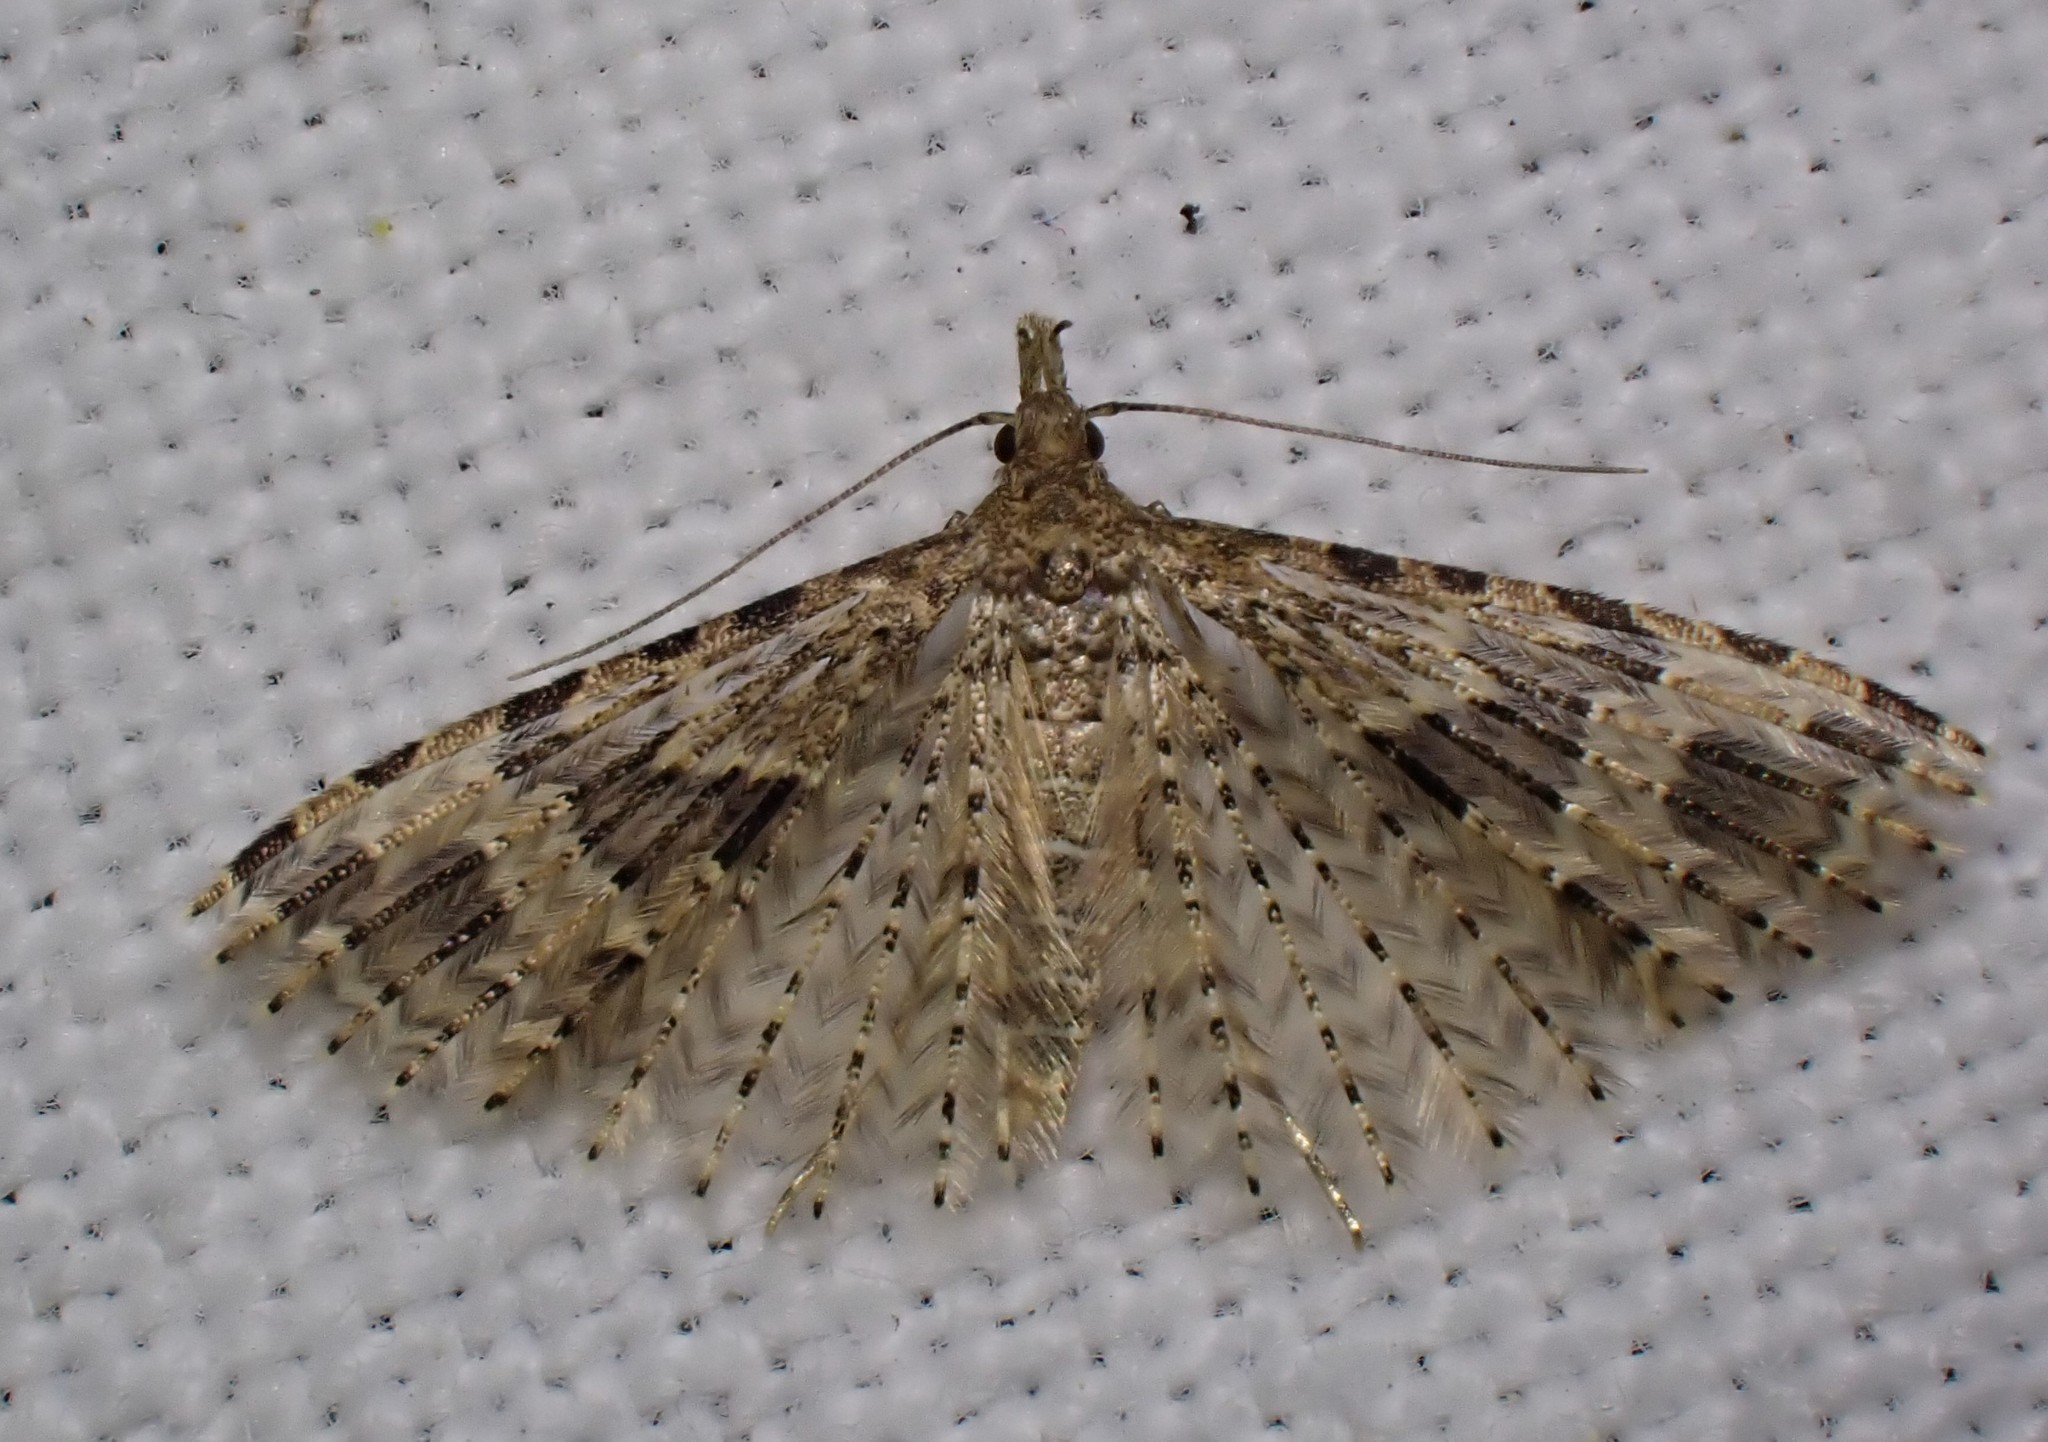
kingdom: Animalia
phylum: Arthropoda
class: Insecta
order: Lepidoptera
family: Alucitidae
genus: Alucita
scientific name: Alucita hexadactyla
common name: Twenty-plume moth
